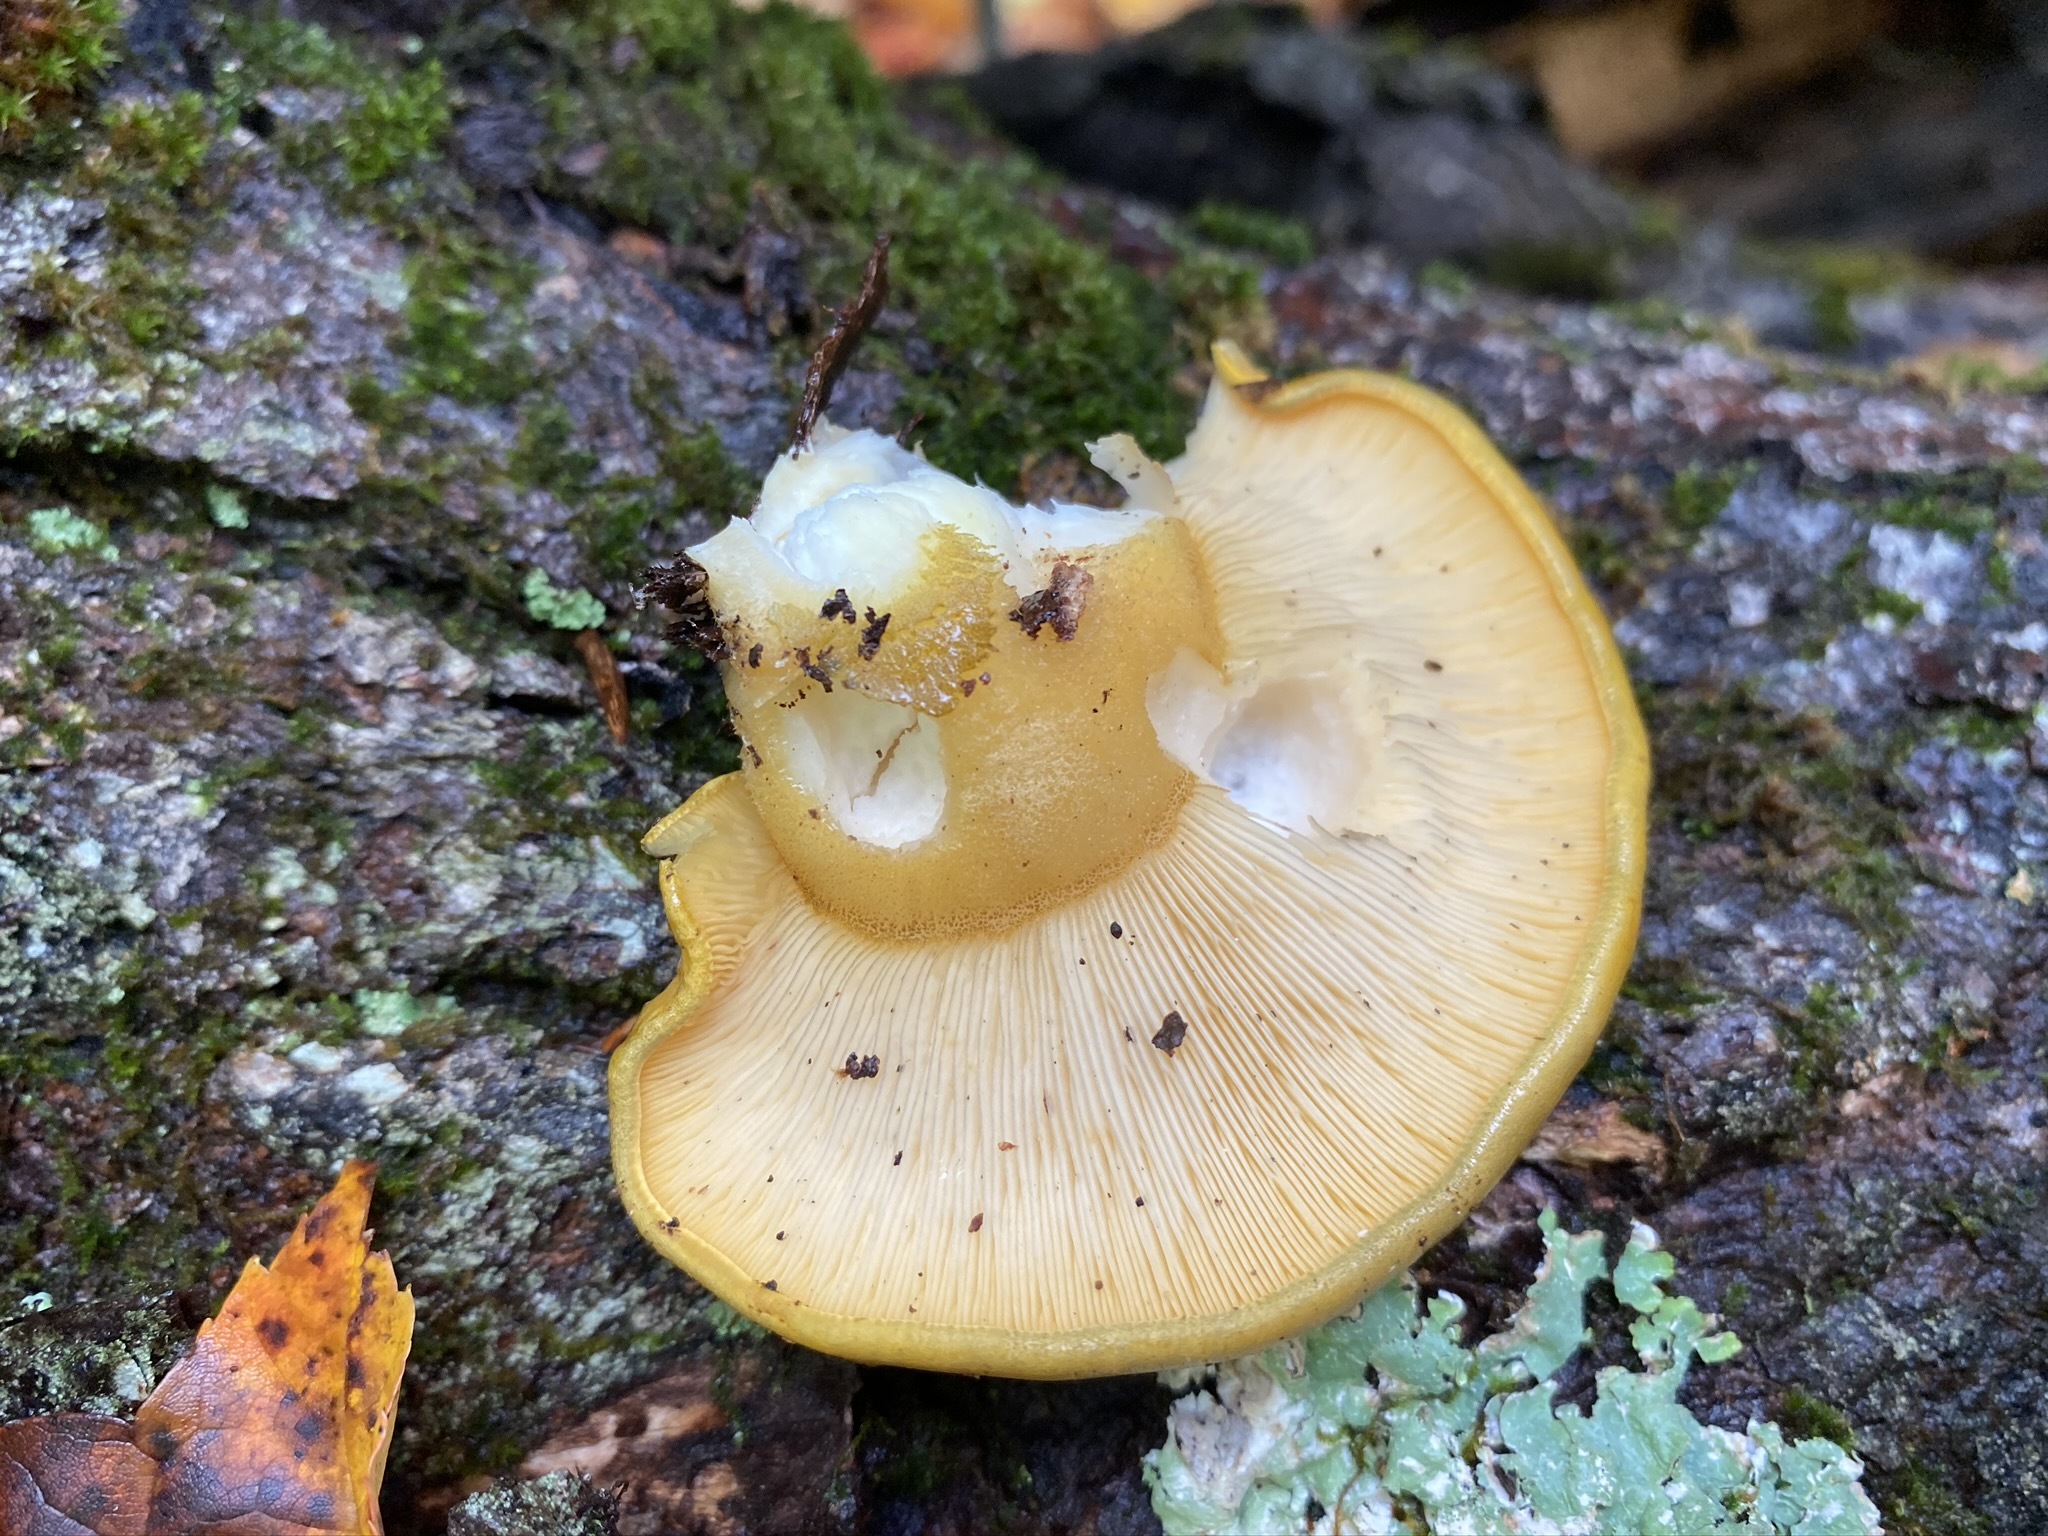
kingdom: Fungi
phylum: Basidiomycota
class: Agaricomycetes
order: Agaricales
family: Sarcomyxaceae
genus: Sarcomyxa
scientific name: Sarcomyxa serotina
